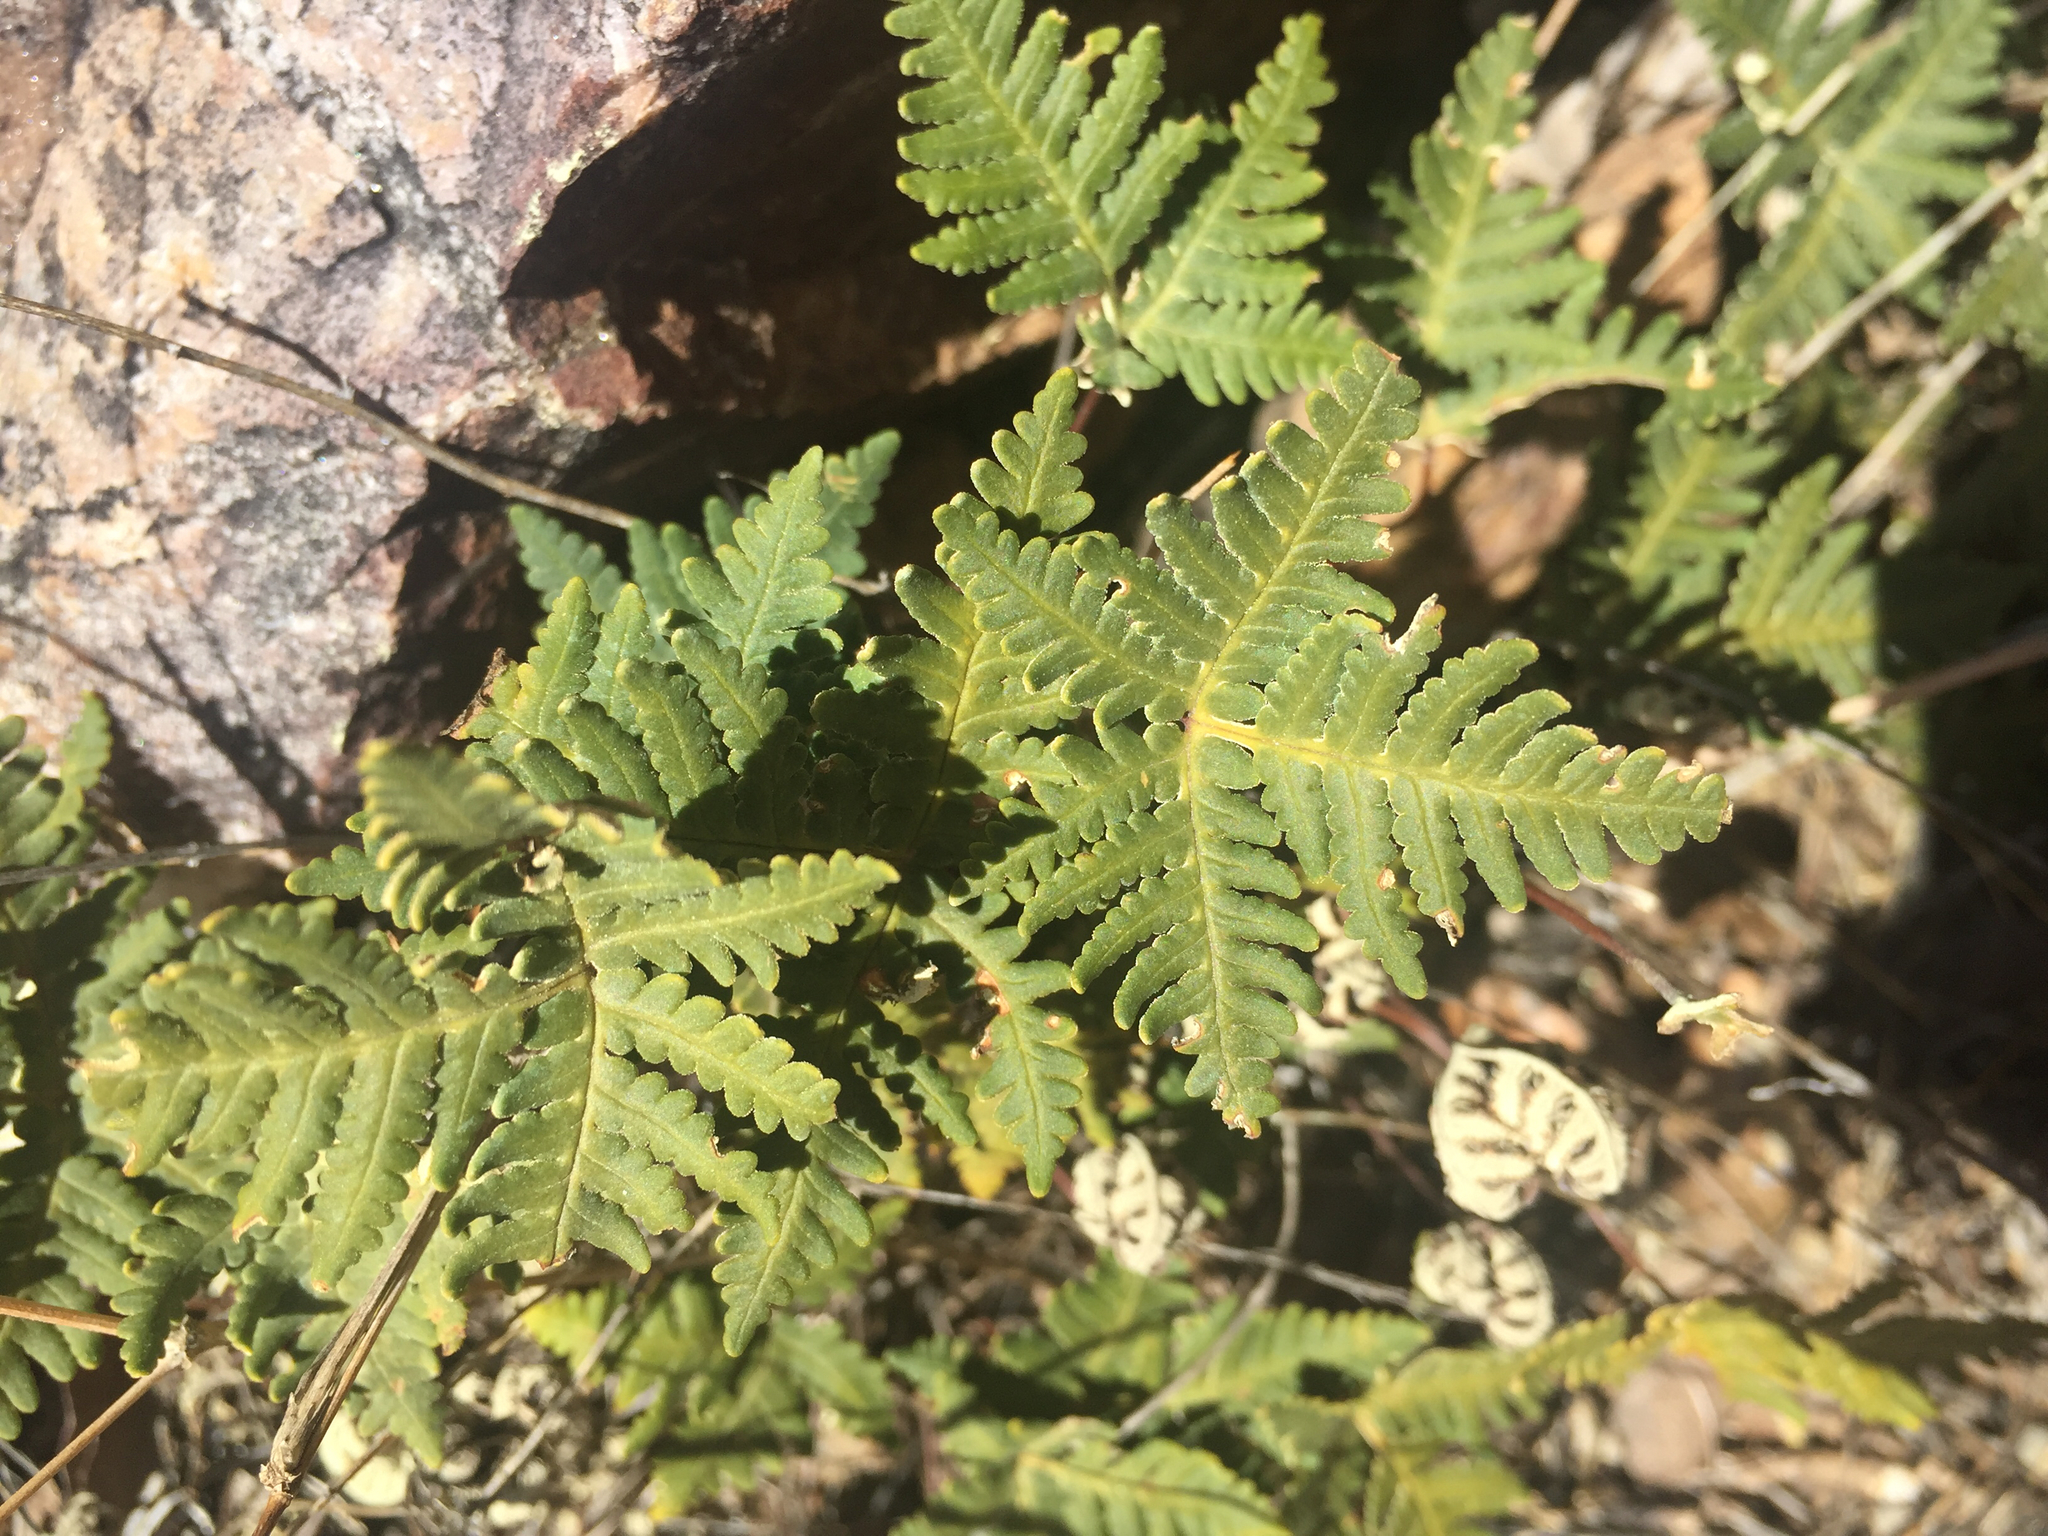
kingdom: Plantae
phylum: Tracheophyta
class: Polypodiopsida
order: Polypodiales
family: Pteridaceae
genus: Notholaena
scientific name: Notholaena standleyi
